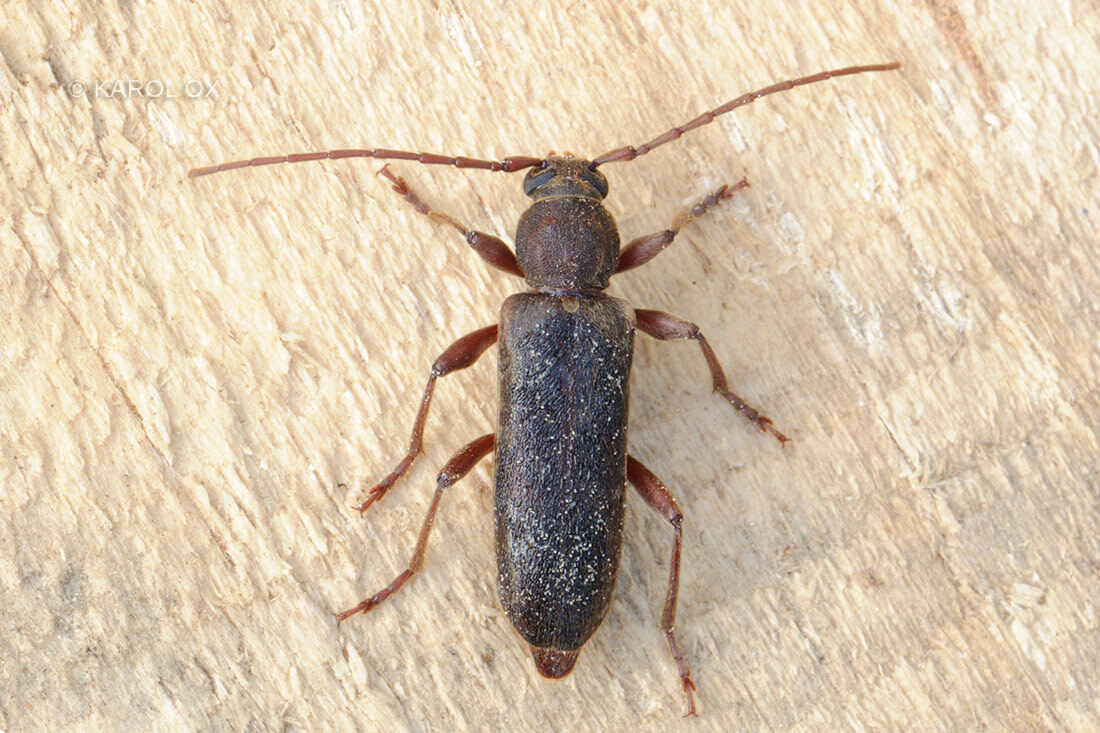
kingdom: Animalia
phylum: Arthropoda
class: Insecta
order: Coleoptera
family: Cerambycidae
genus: Trichoferus
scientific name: Trichoferus campestris
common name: Velvet long horned beetle
